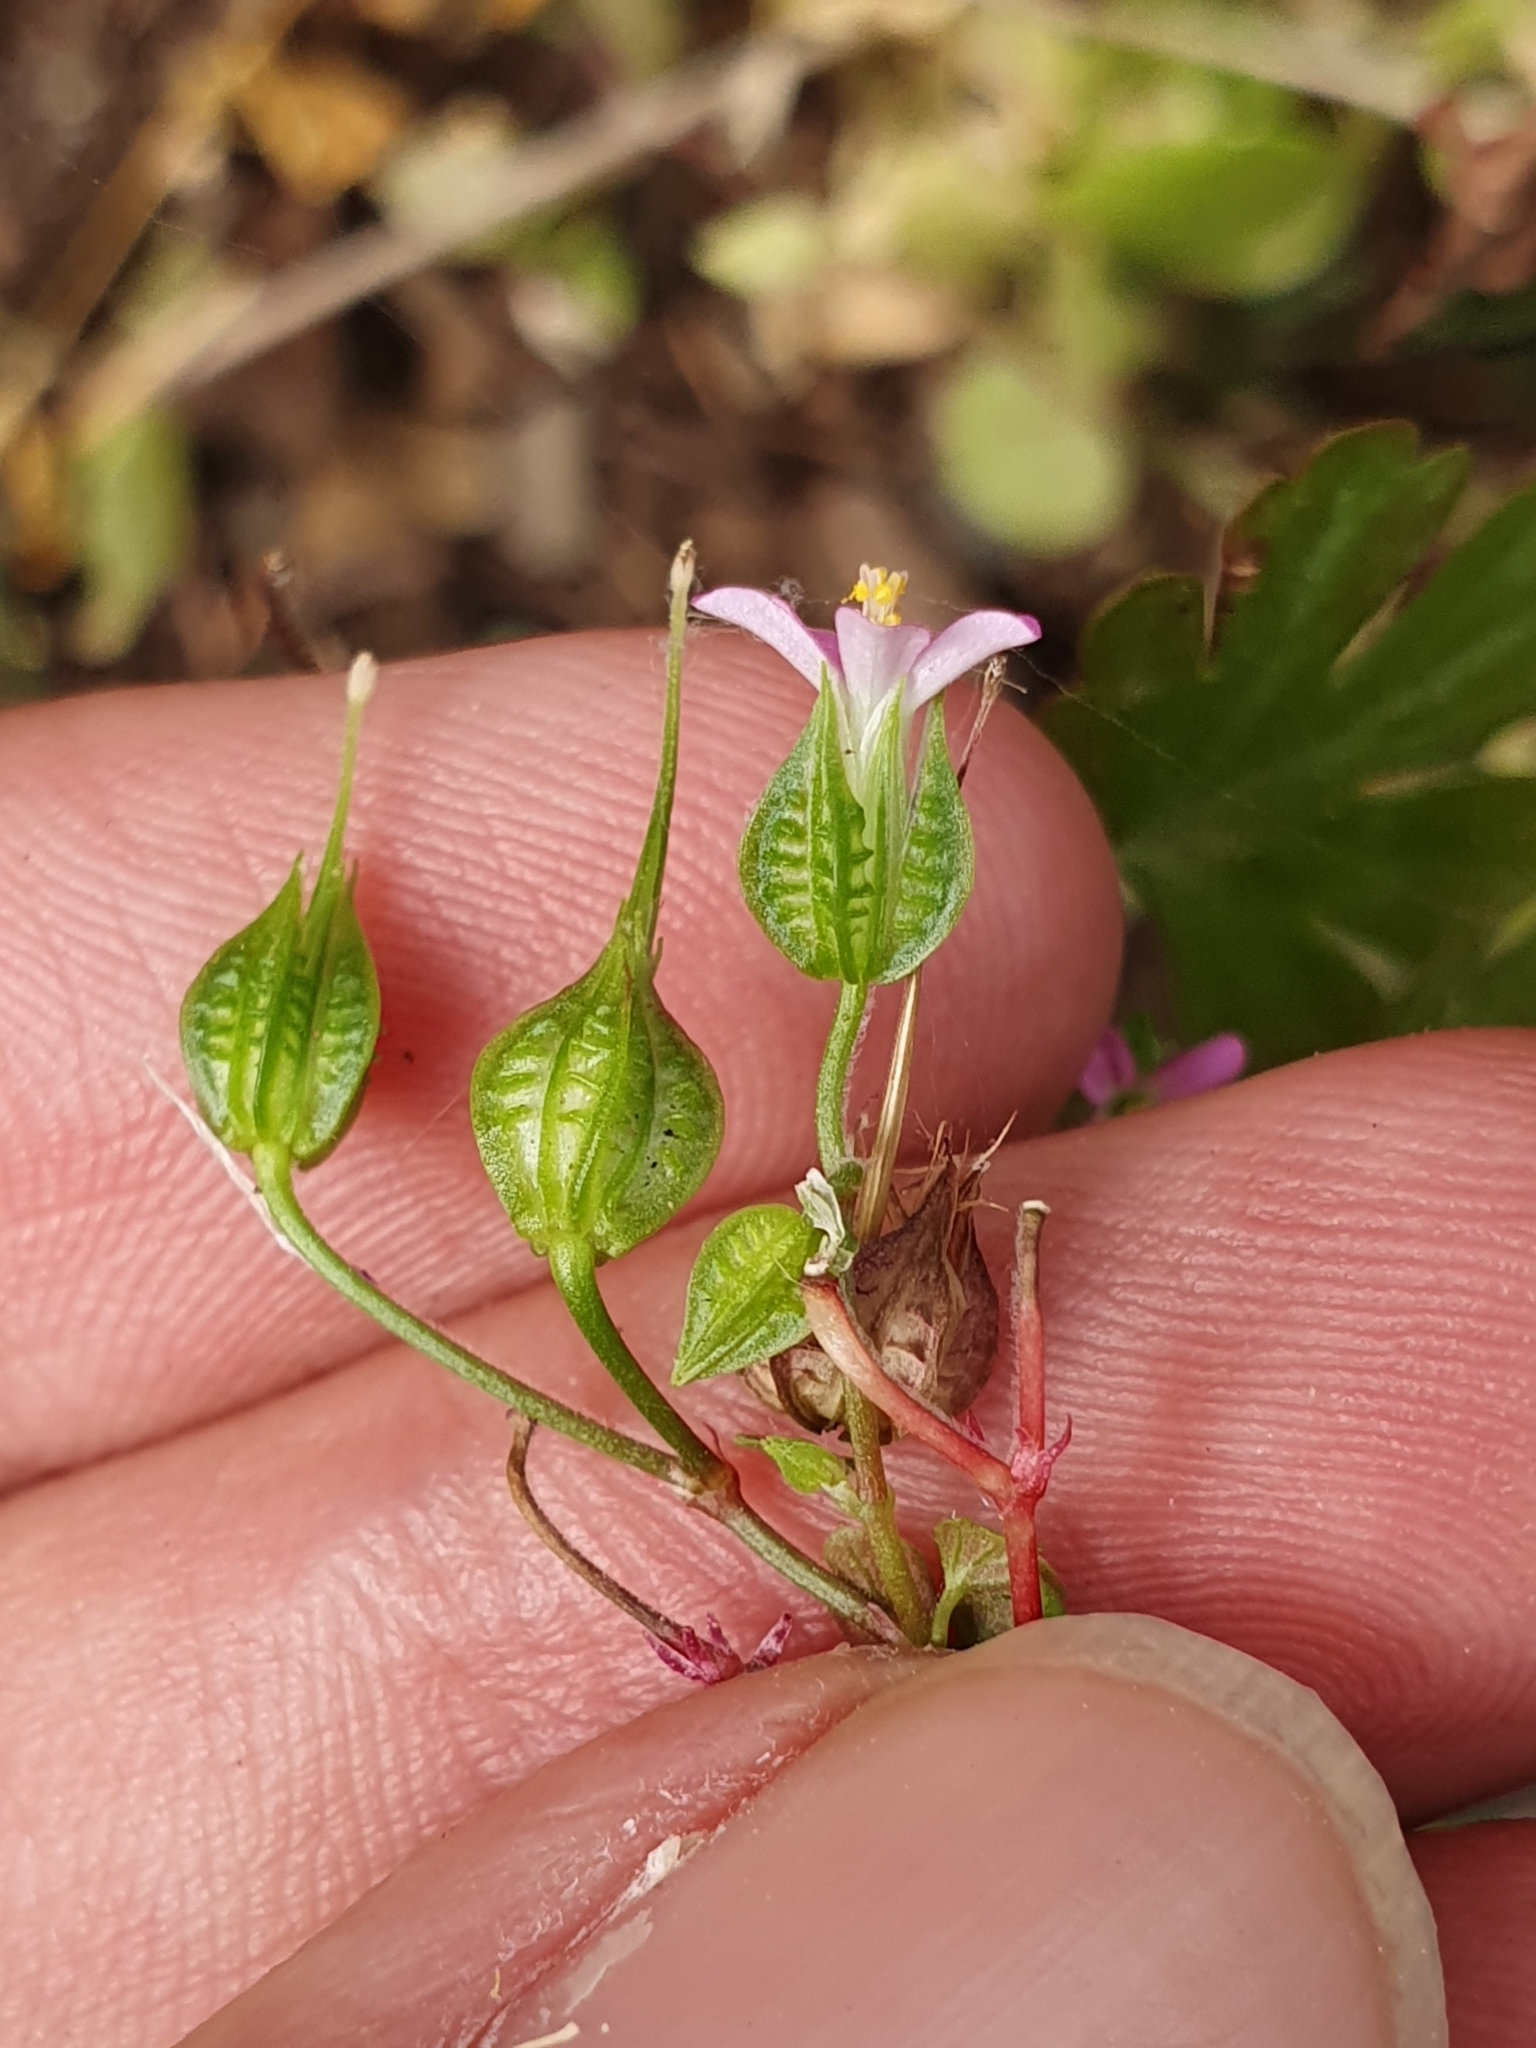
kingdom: Plantae
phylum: Tracheophyta
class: Magnoliopsida
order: Geraniales
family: Geraniaceae
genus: Geranium
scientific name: Geranium lucidum
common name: Shining crane's-bill
